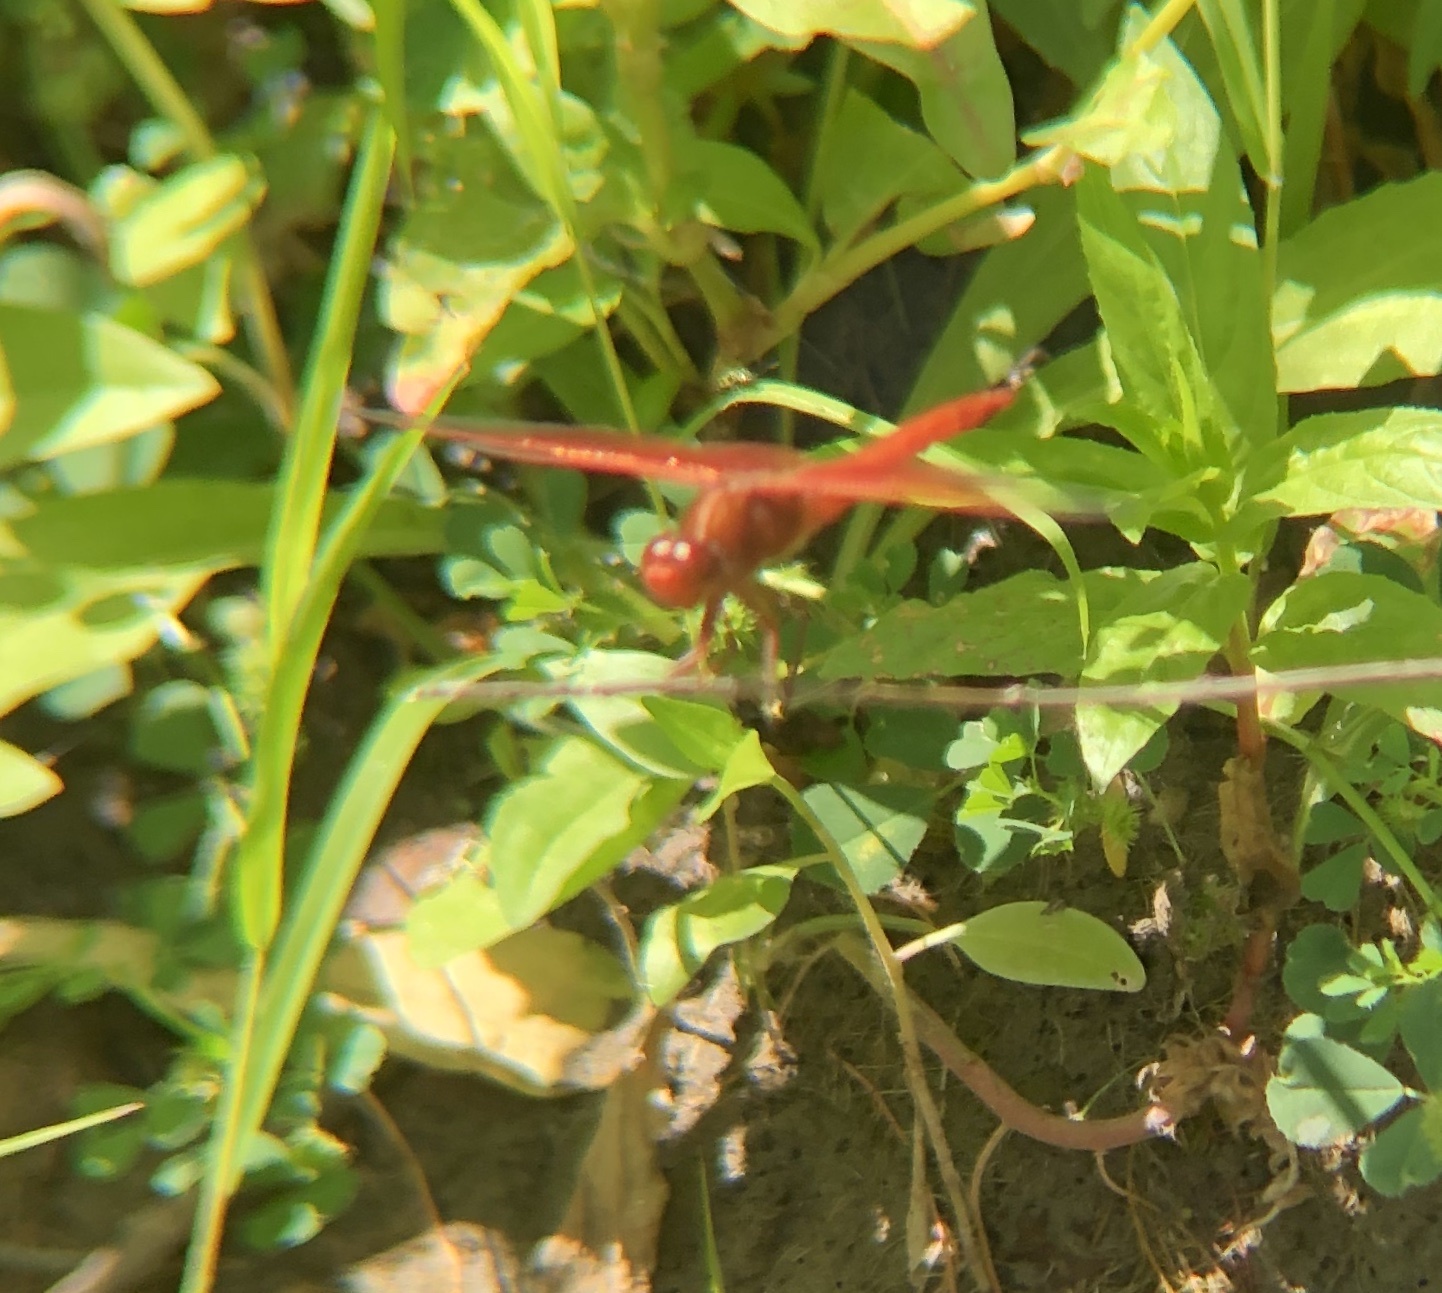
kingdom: Animalia
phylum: Arthropoda
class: Insecta
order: Odonata
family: Libellulidae
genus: Libellula
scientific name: Libellula saturata
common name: Flame skimmer
